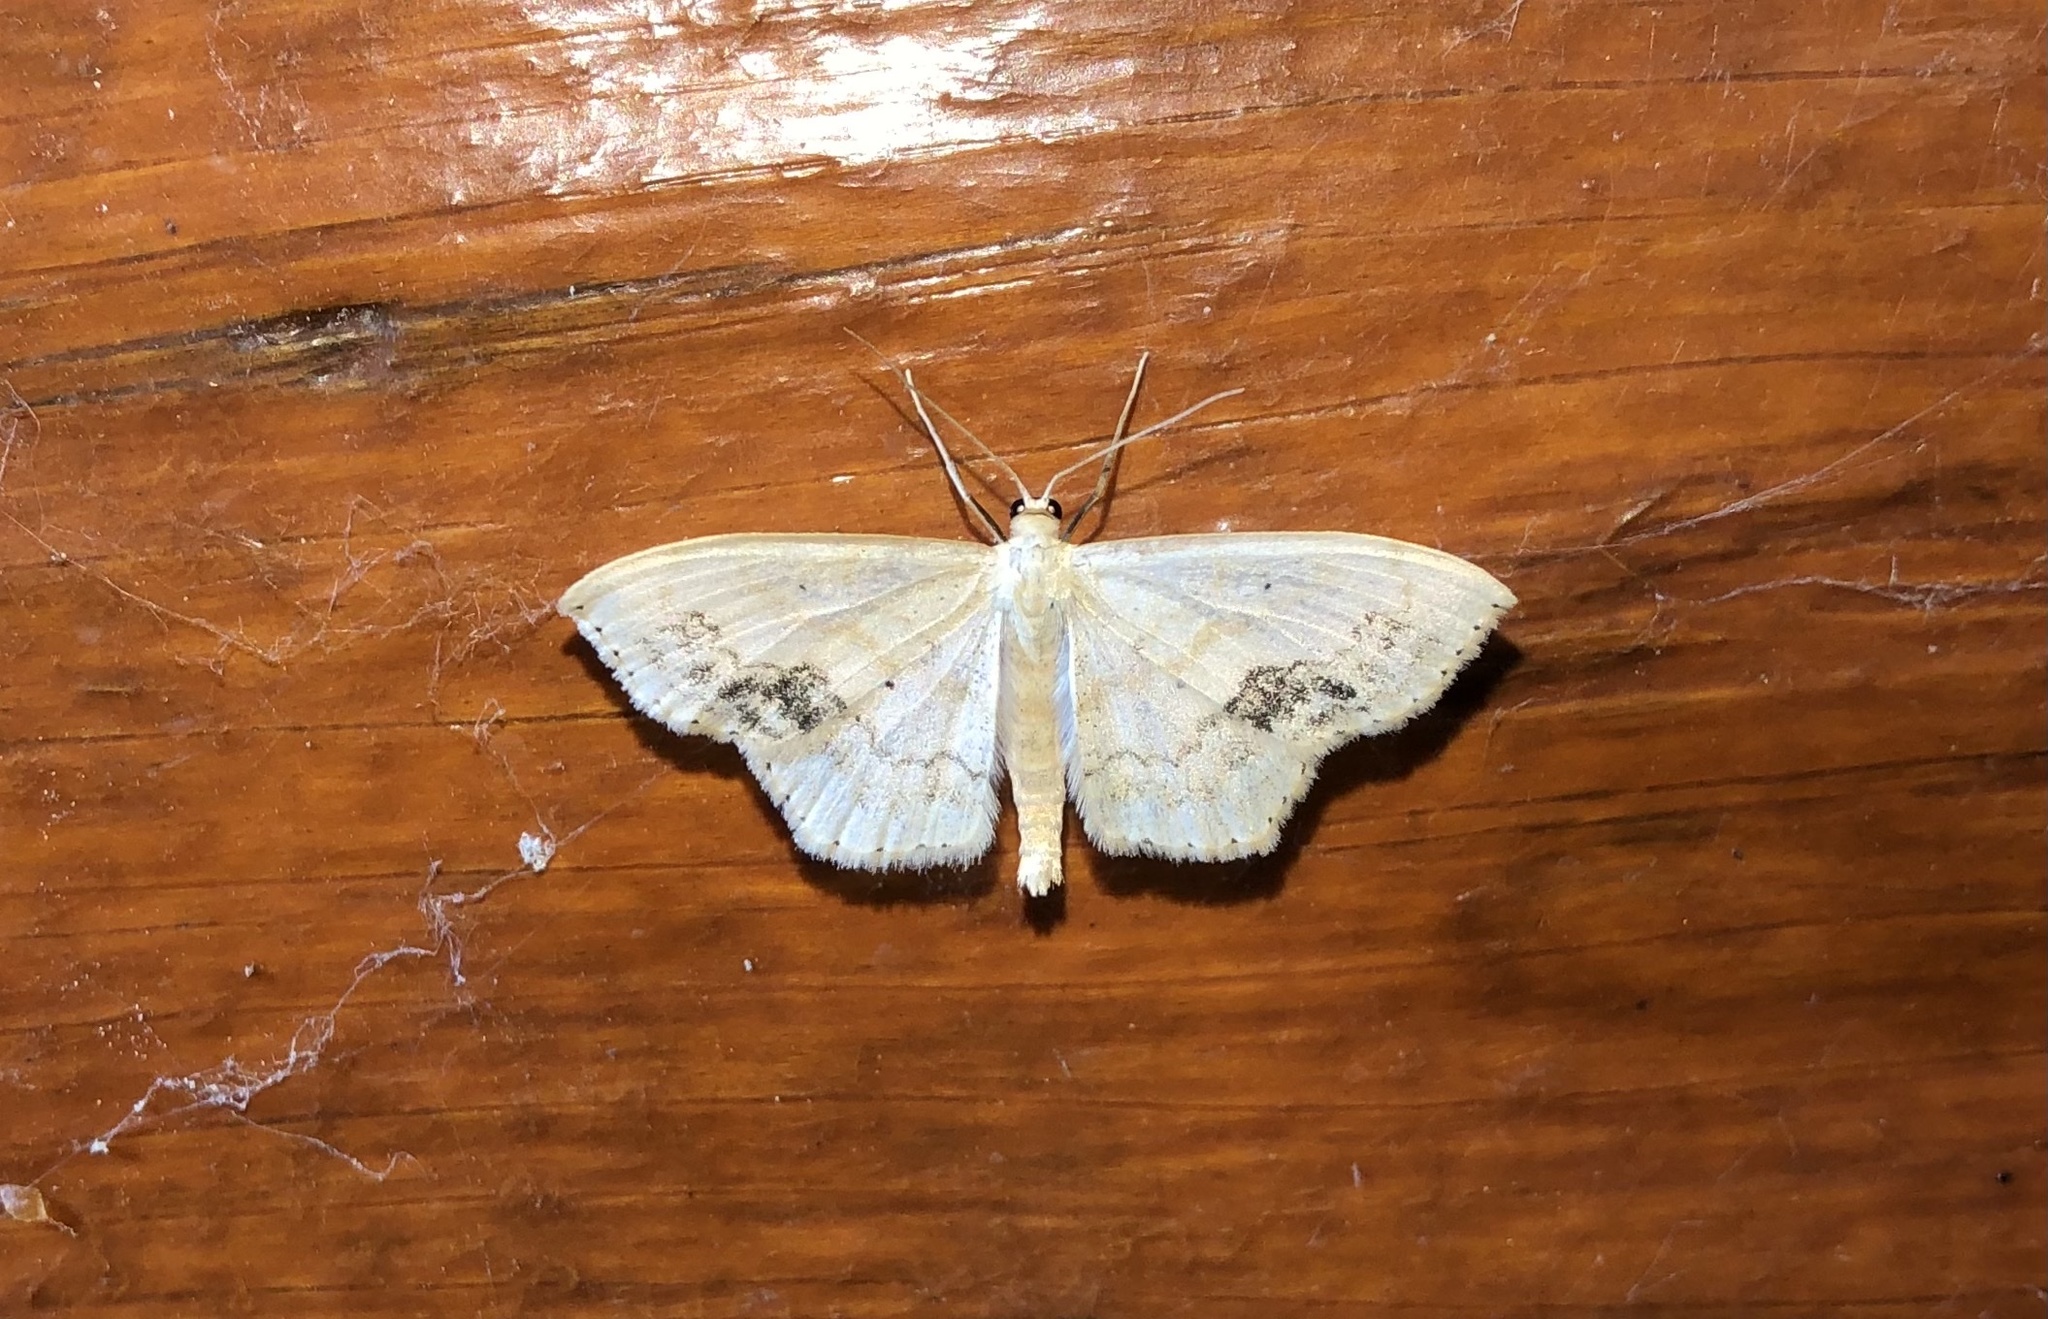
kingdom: Animalia
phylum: Arthropoda
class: Insecta
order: Lepidoptera
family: Geometridae
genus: Scopula
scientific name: Scopula limboundata
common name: Large lace border
